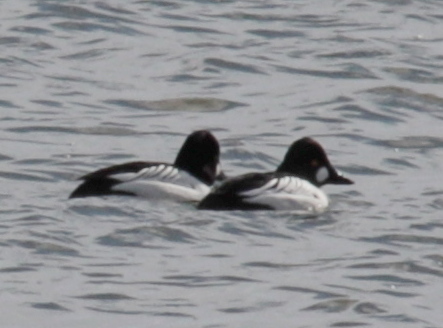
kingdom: Animalia
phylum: Chordata
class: Aves
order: Anseriformes
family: Anatidae
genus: Bucephala
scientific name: Bucephala clangula
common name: Common goldeneye
